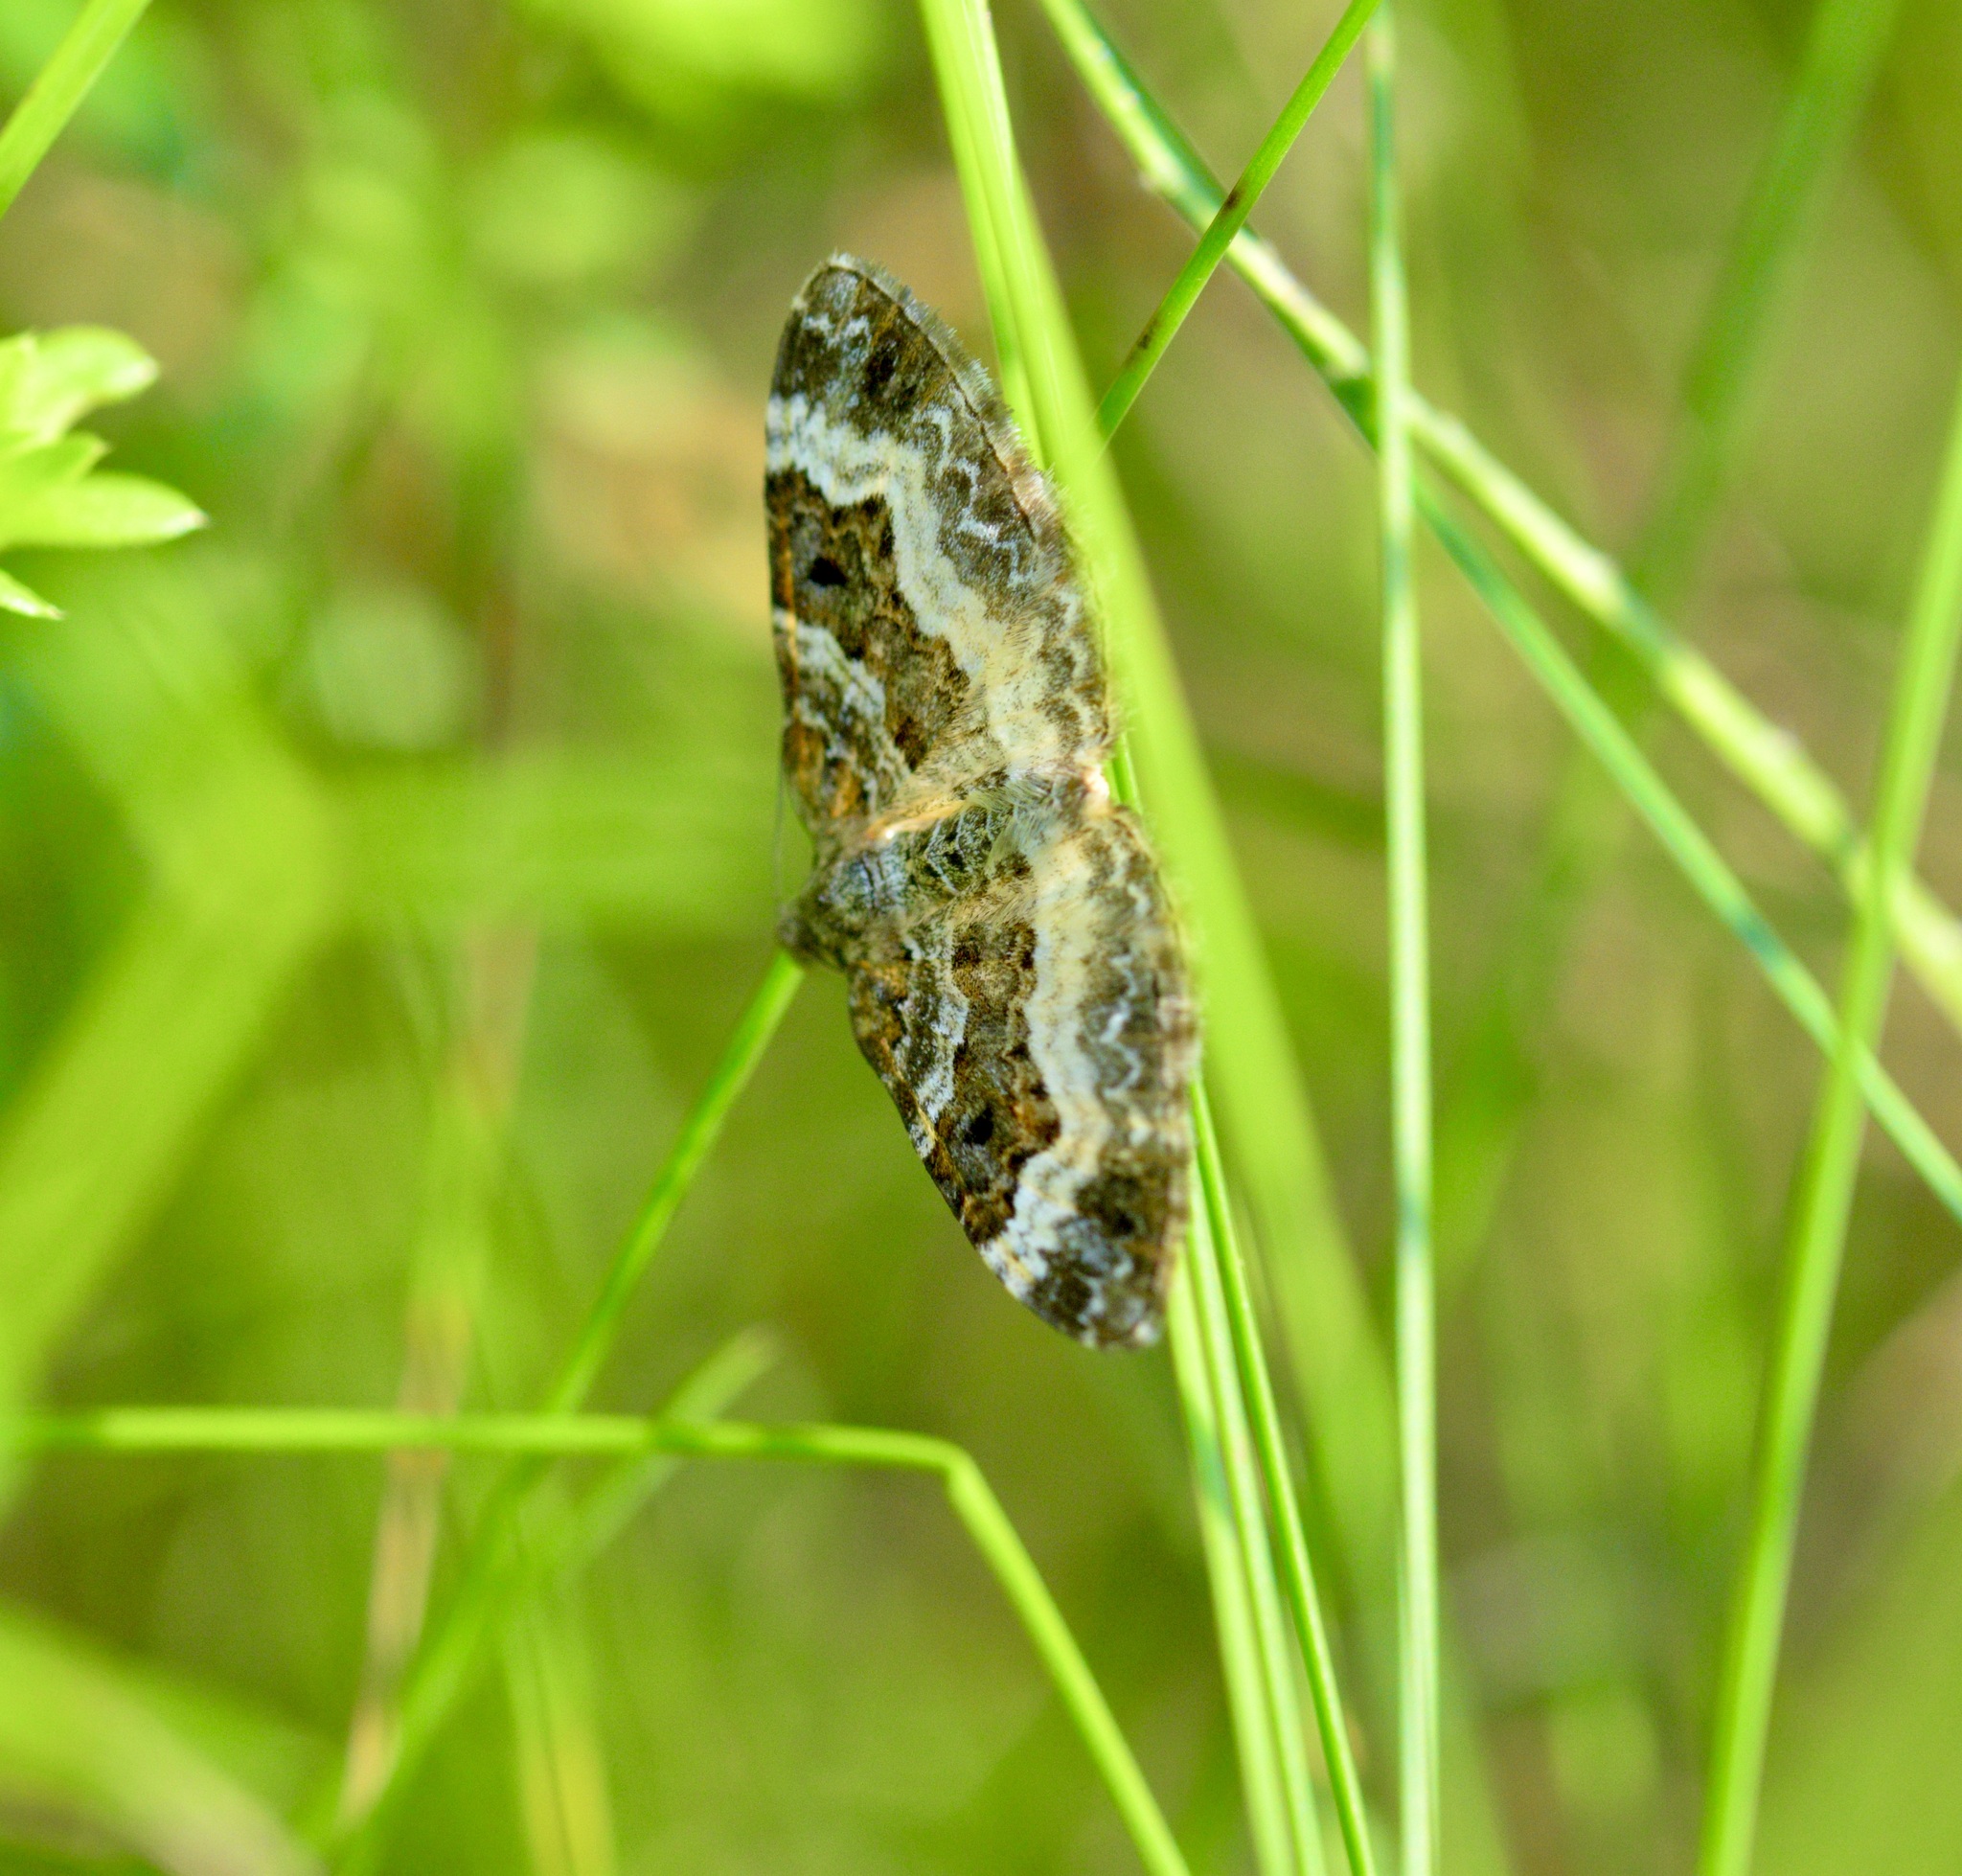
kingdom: Animalia
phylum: Arthropoda
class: Insecta
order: Lepidoptera
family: Geometridae
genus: Epirrhoe
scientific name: Epirrhoe alternata
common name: Common carpet
